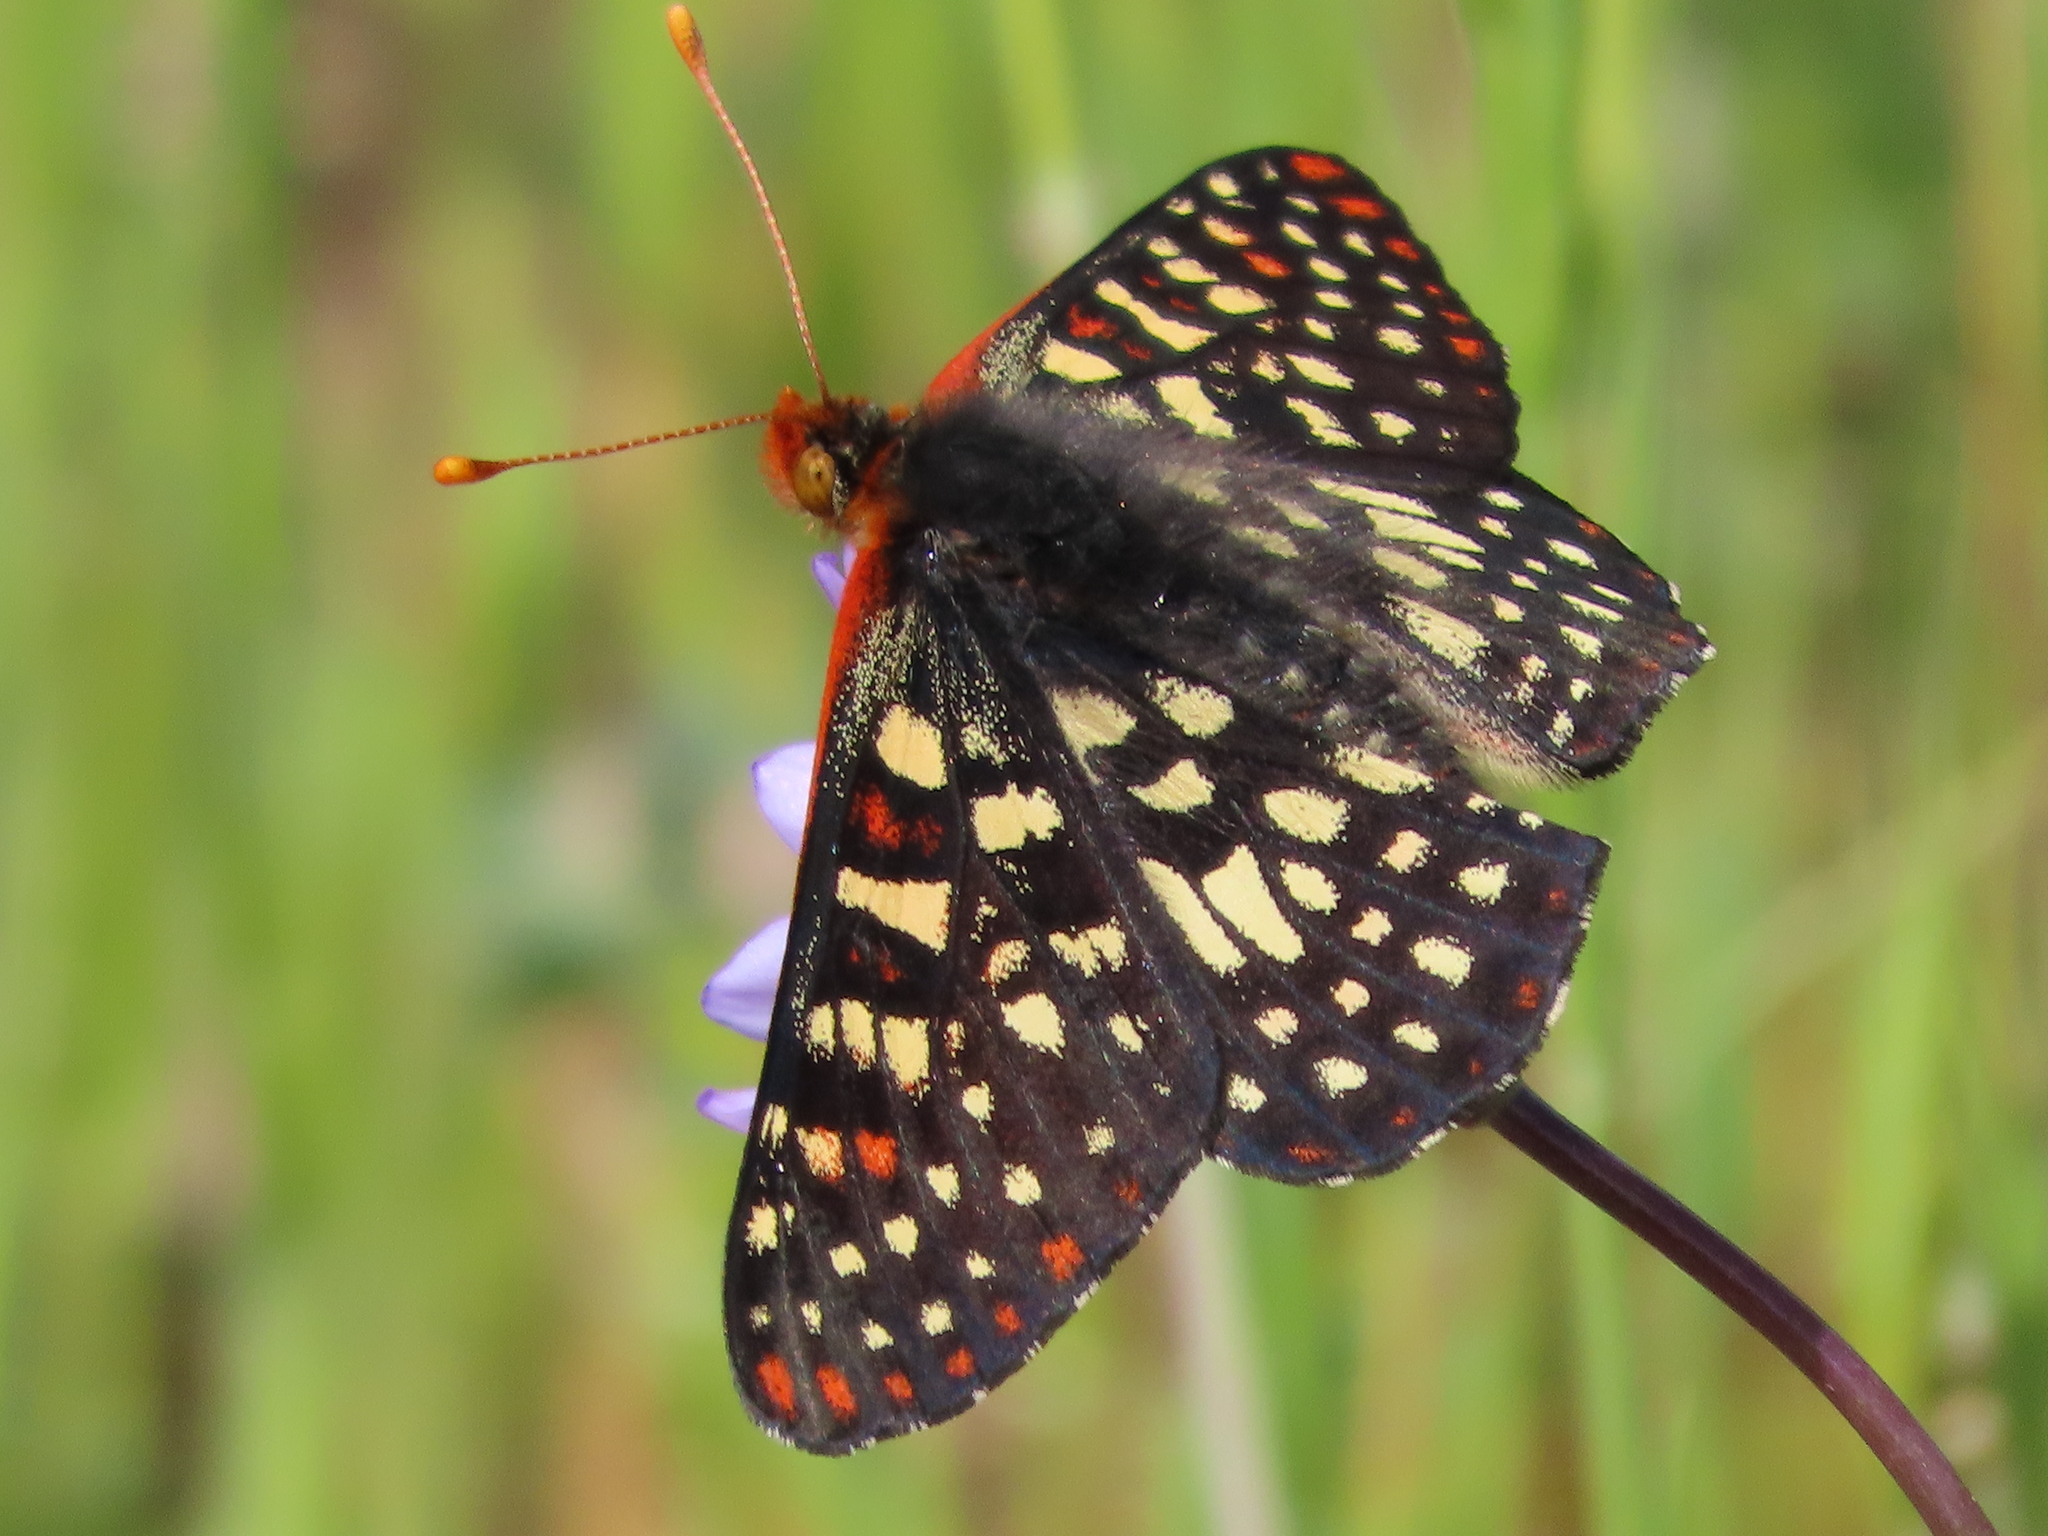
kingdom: Animalia
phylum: Arthropoda
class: Insecta
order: Lepidoptera
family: Nymphalidae
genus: Occidryas
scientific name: Occidryas chalcedona
